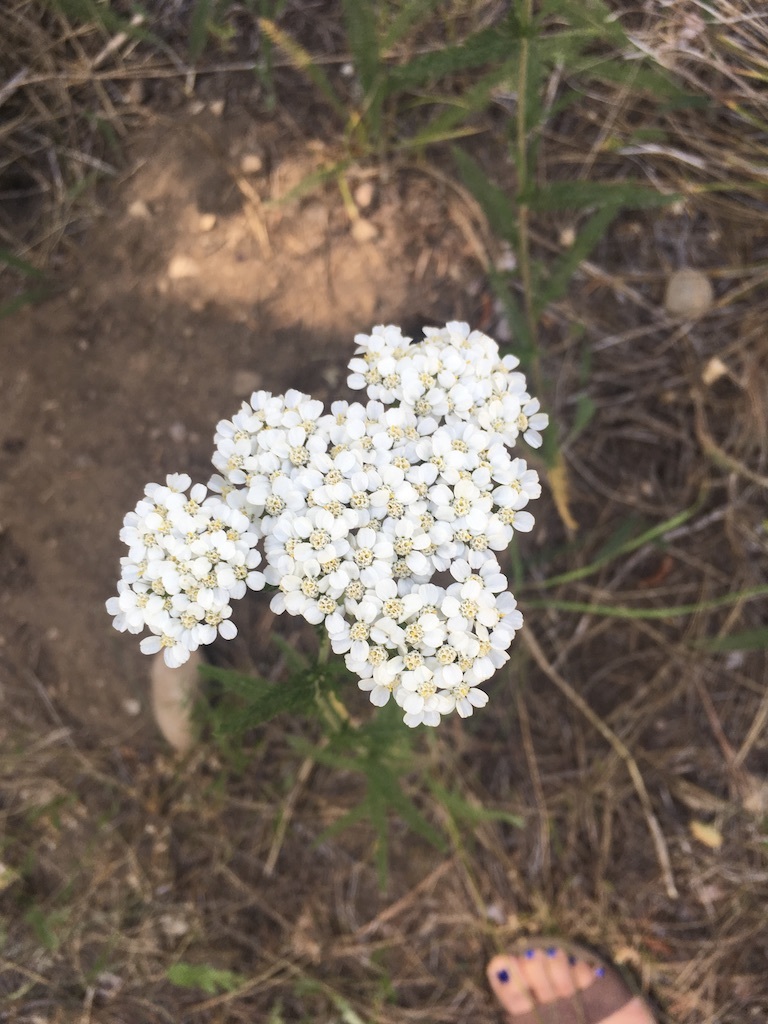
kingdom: Plantae
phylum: Tracheophyta
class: Magnoliopsida
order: Asterales
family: Asteraceae
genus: Achillea
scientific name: Achillea millefolium
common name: Yarrow
